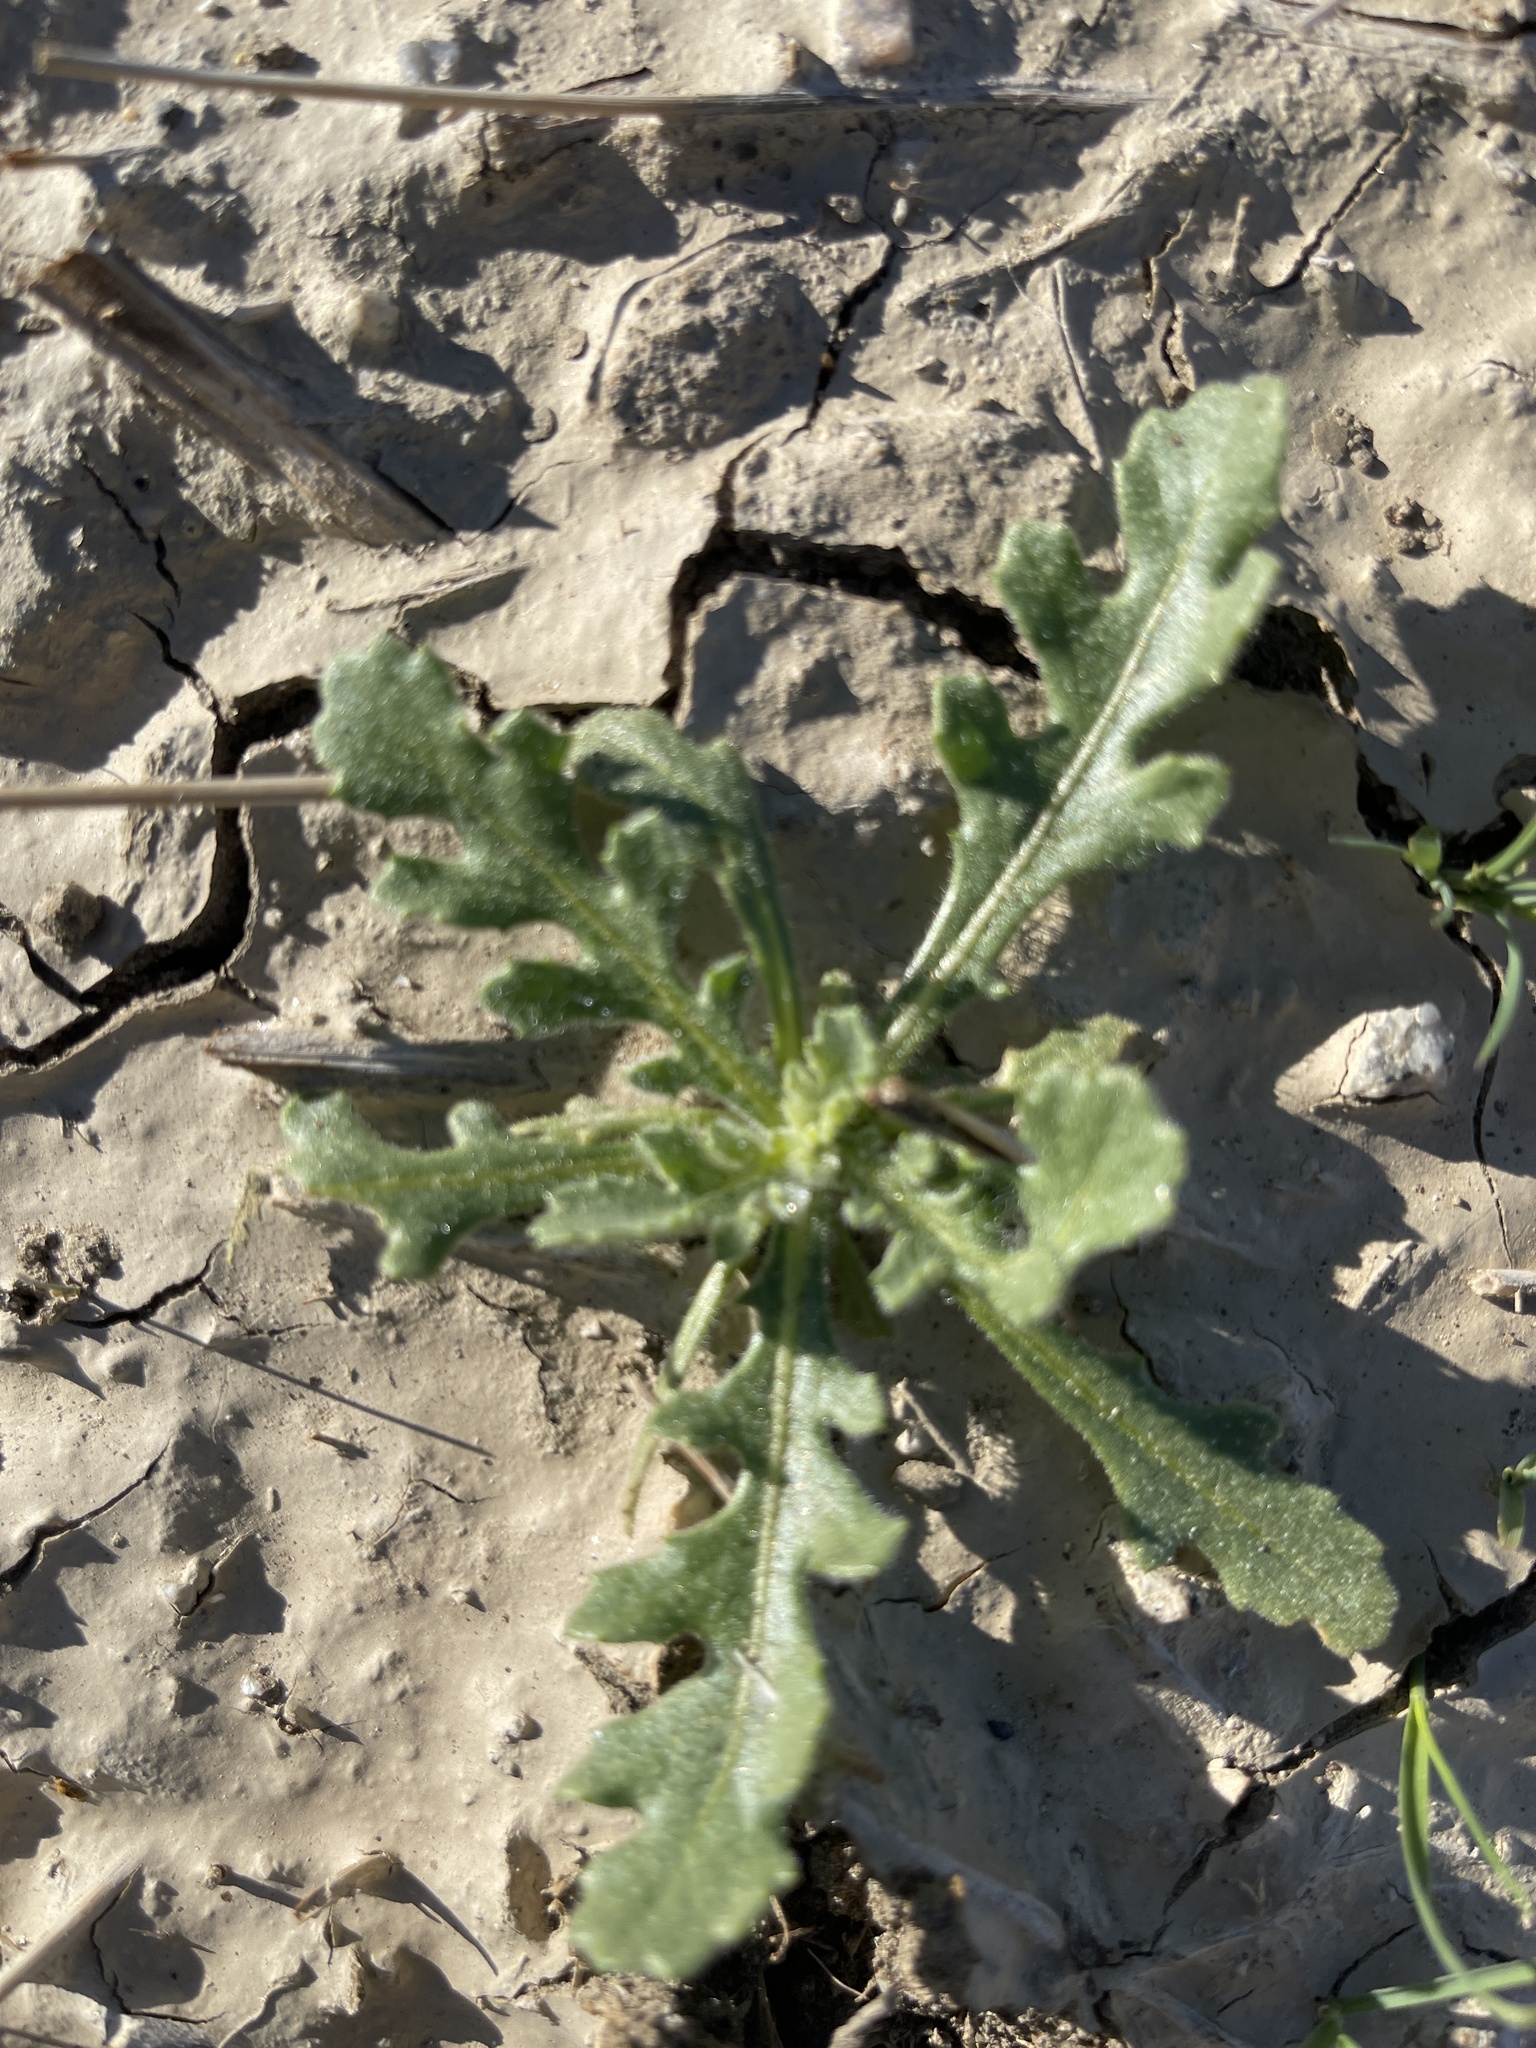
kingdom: Plantae
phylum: Tracheophyta
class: Magnoliopsida
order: Asterales
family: Asteraceae
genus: Volutaria
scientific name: Volutaria tubuliflora
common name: Desert knapweed
